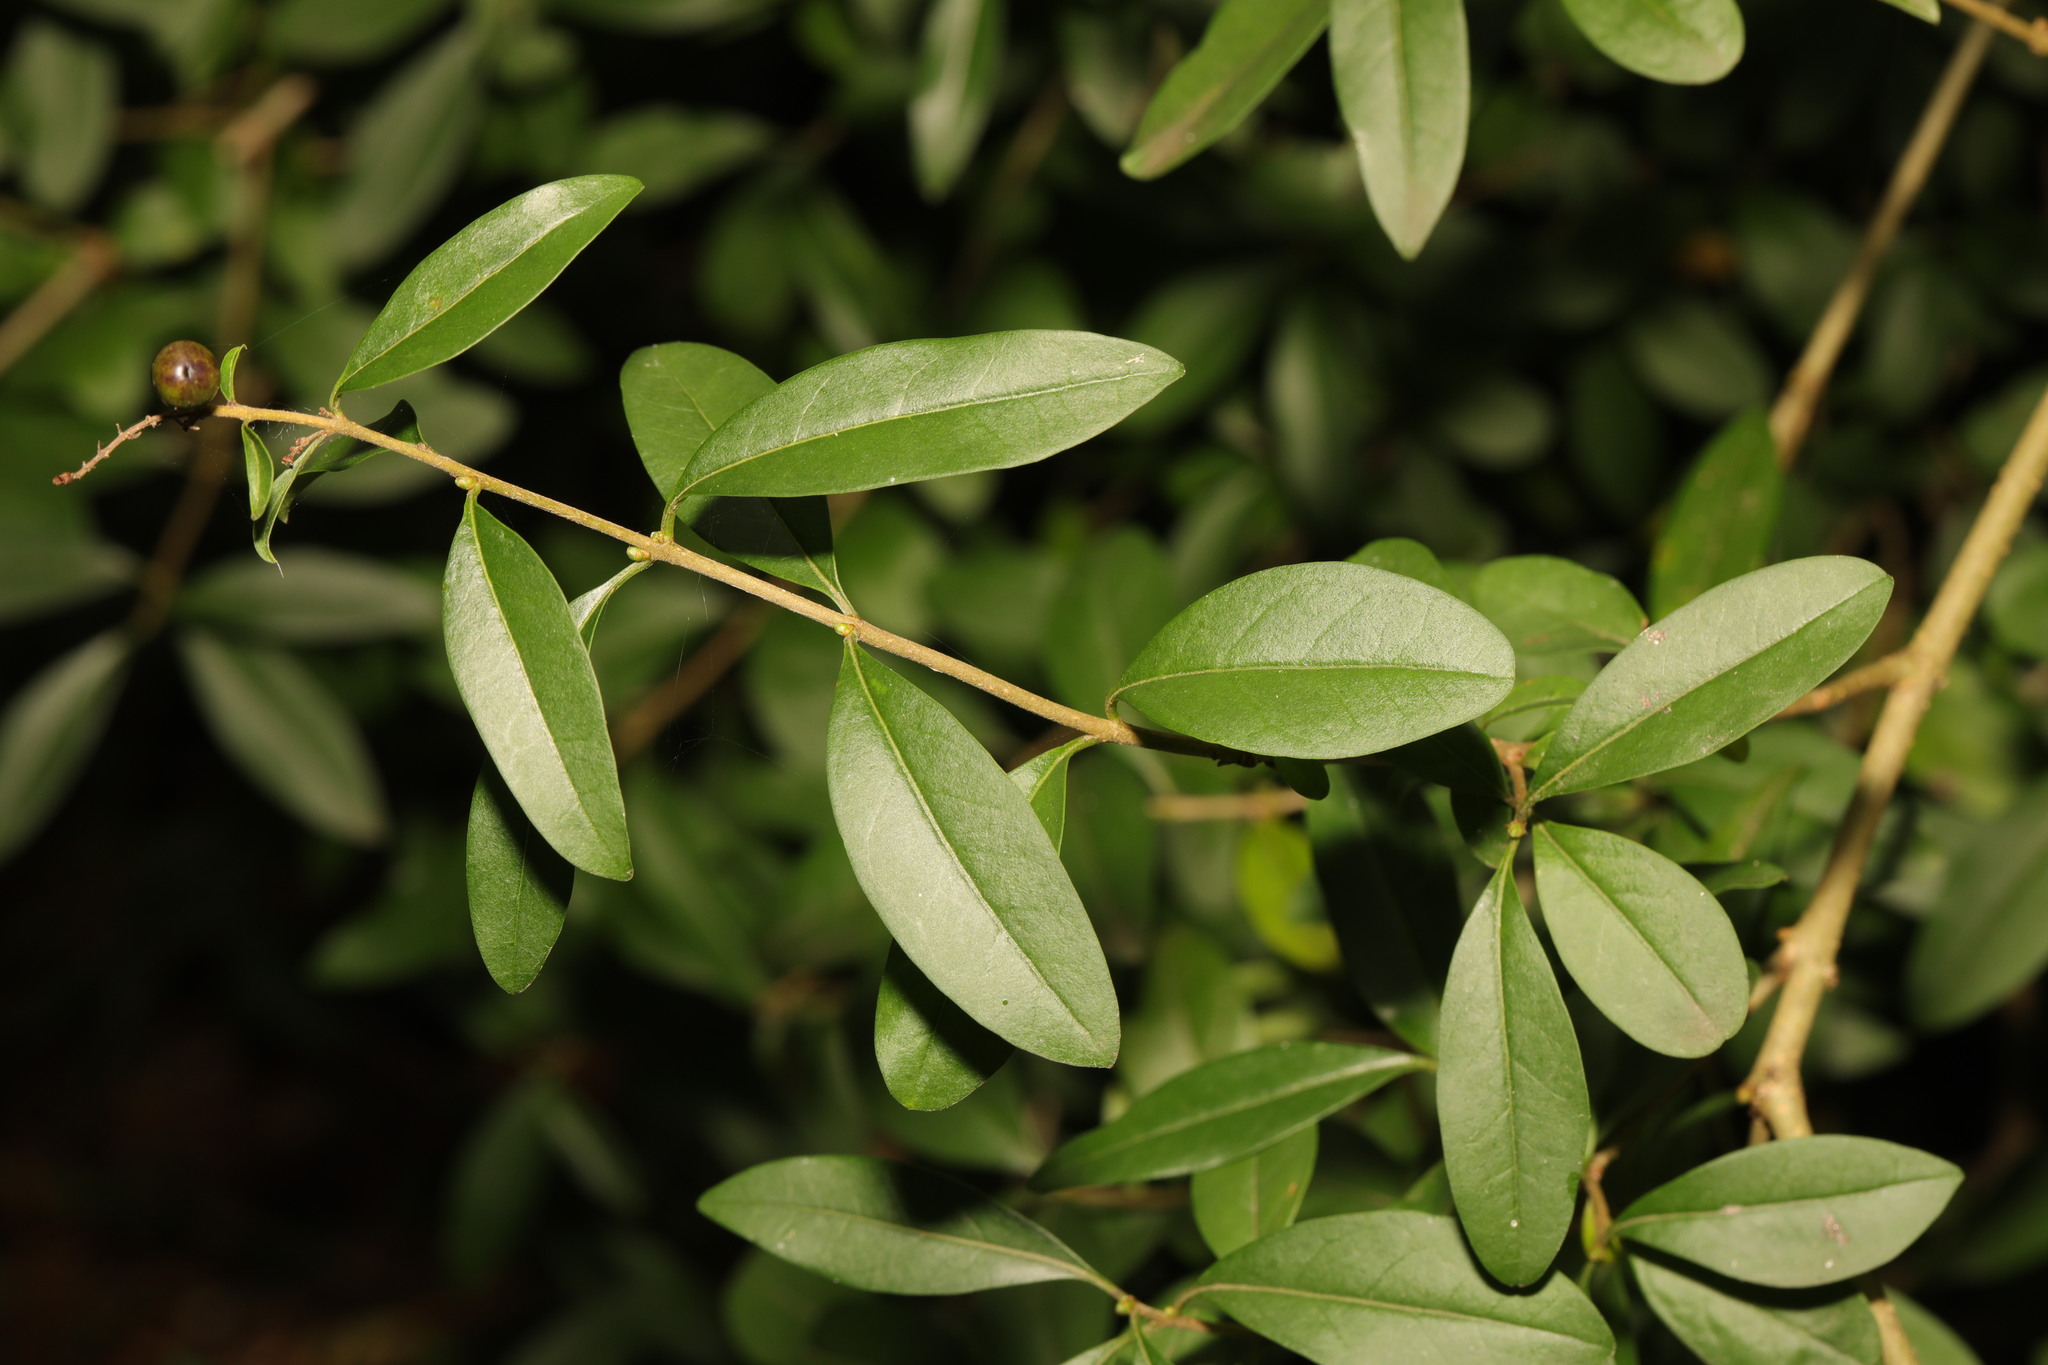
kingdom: Plantae
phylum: Tracheophyta
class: Magnoliopsida
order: Lamiales
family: Oleaceae
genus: Ligustrum
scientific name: Ligustrum vulgare
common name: Wild privet
